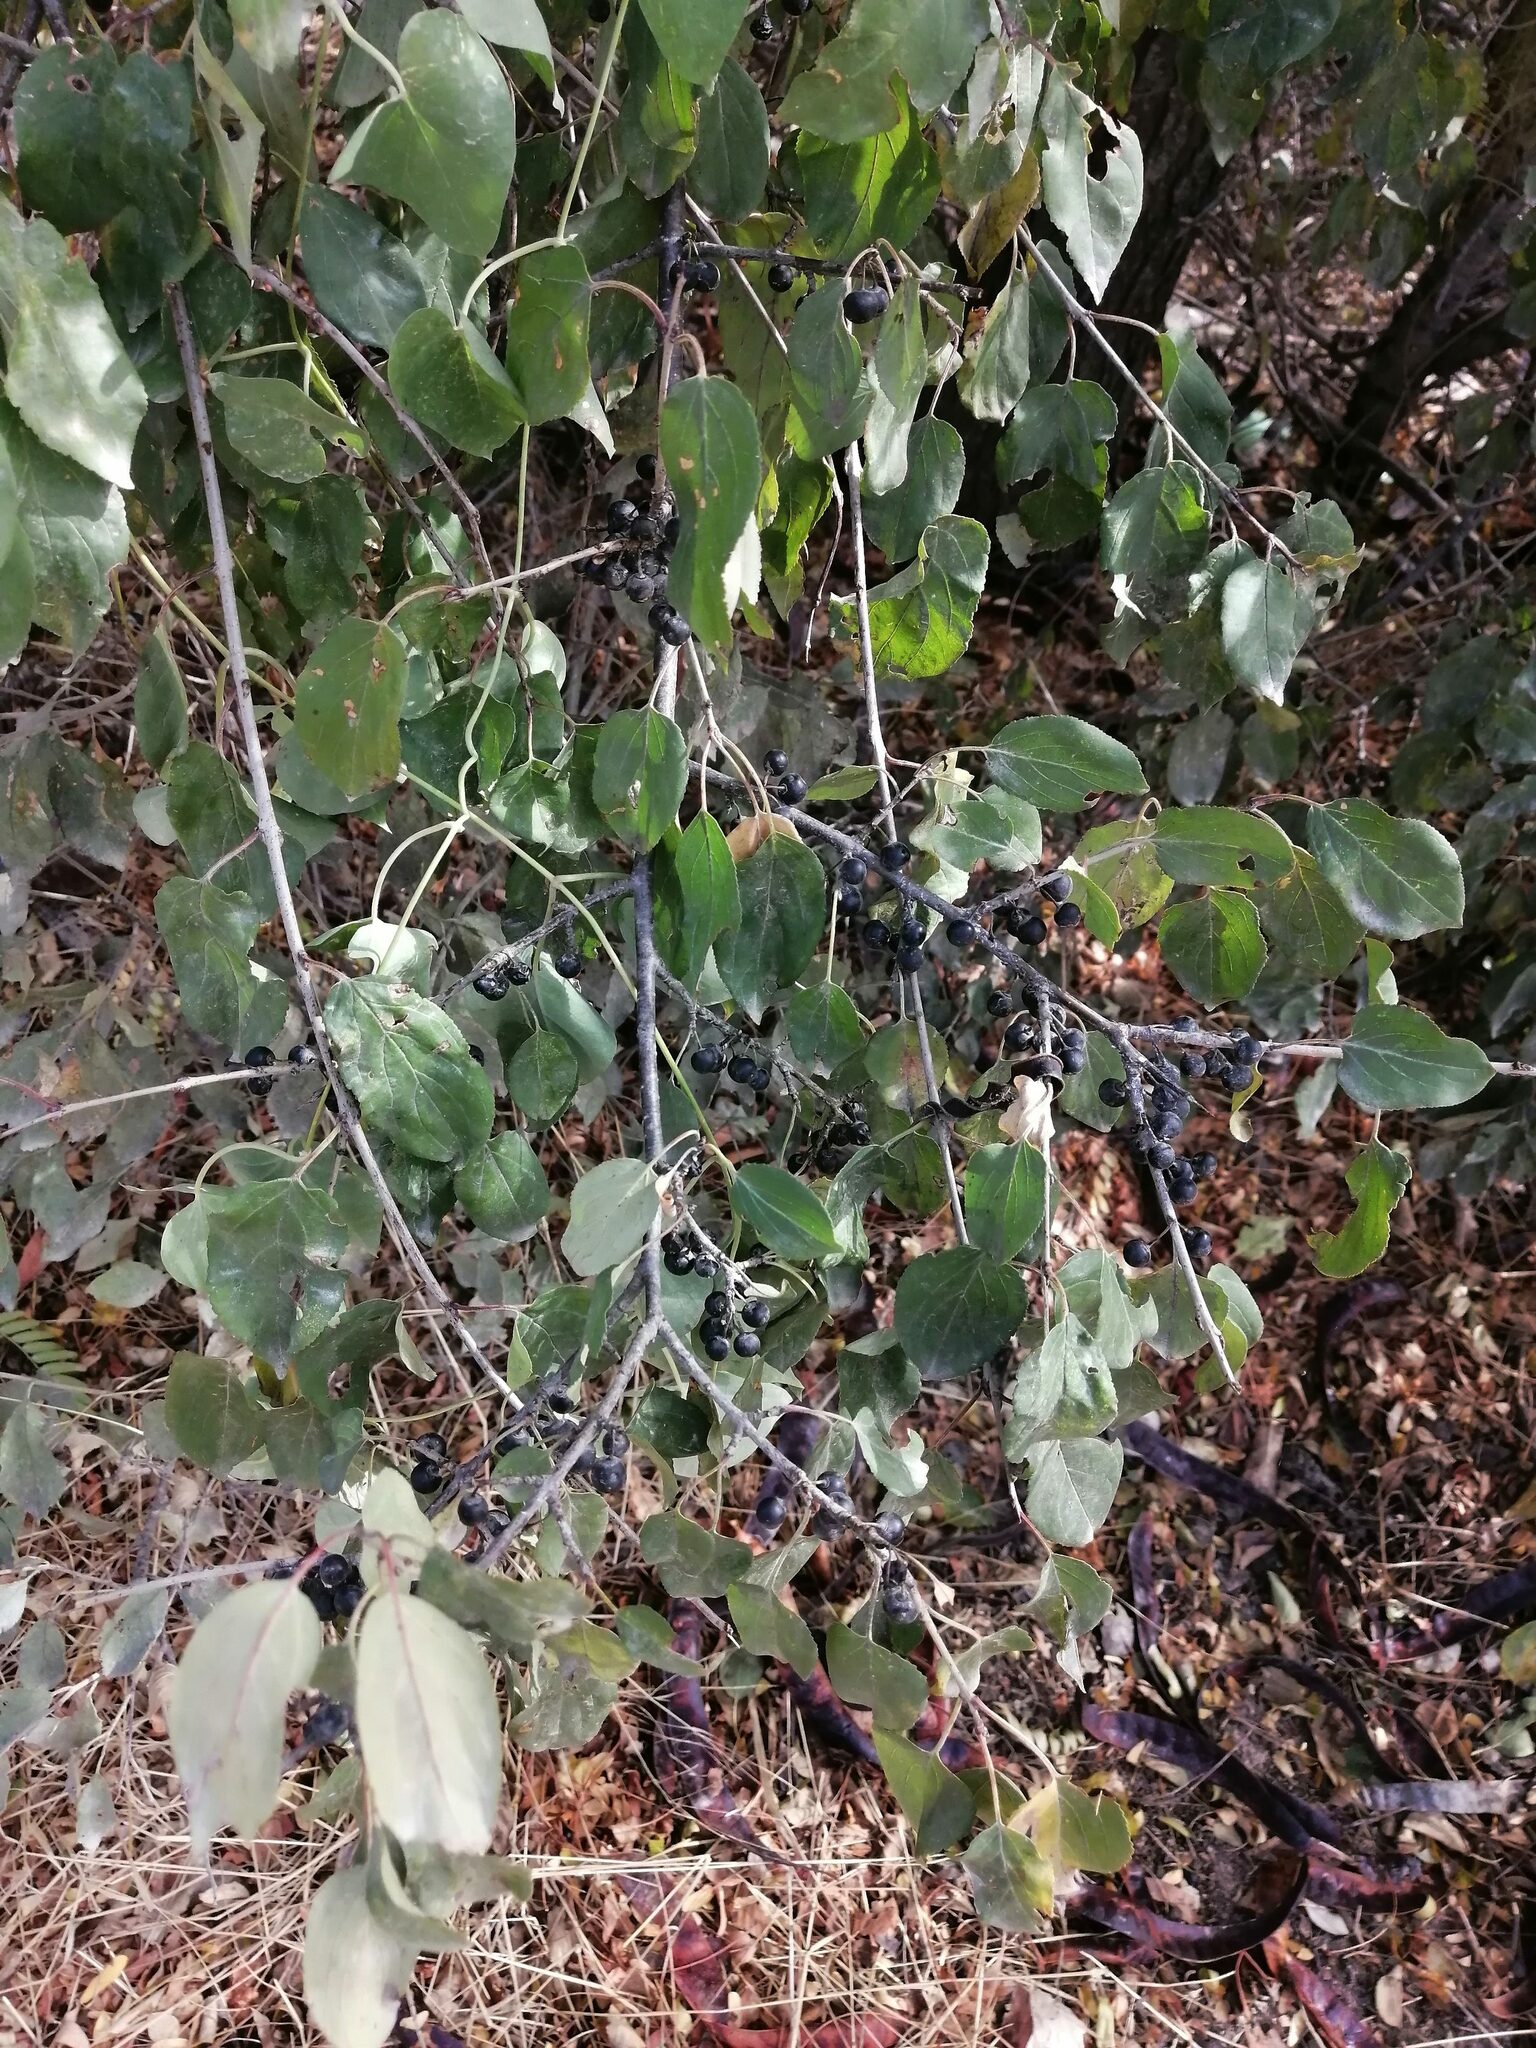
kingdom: Plantae
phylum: Tracheophyta
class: Magnoliopsida
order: Rosales
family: Rhamnaceae
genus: Rhamnus
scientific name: Rhamnus cathartica
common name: Common buckthorn
